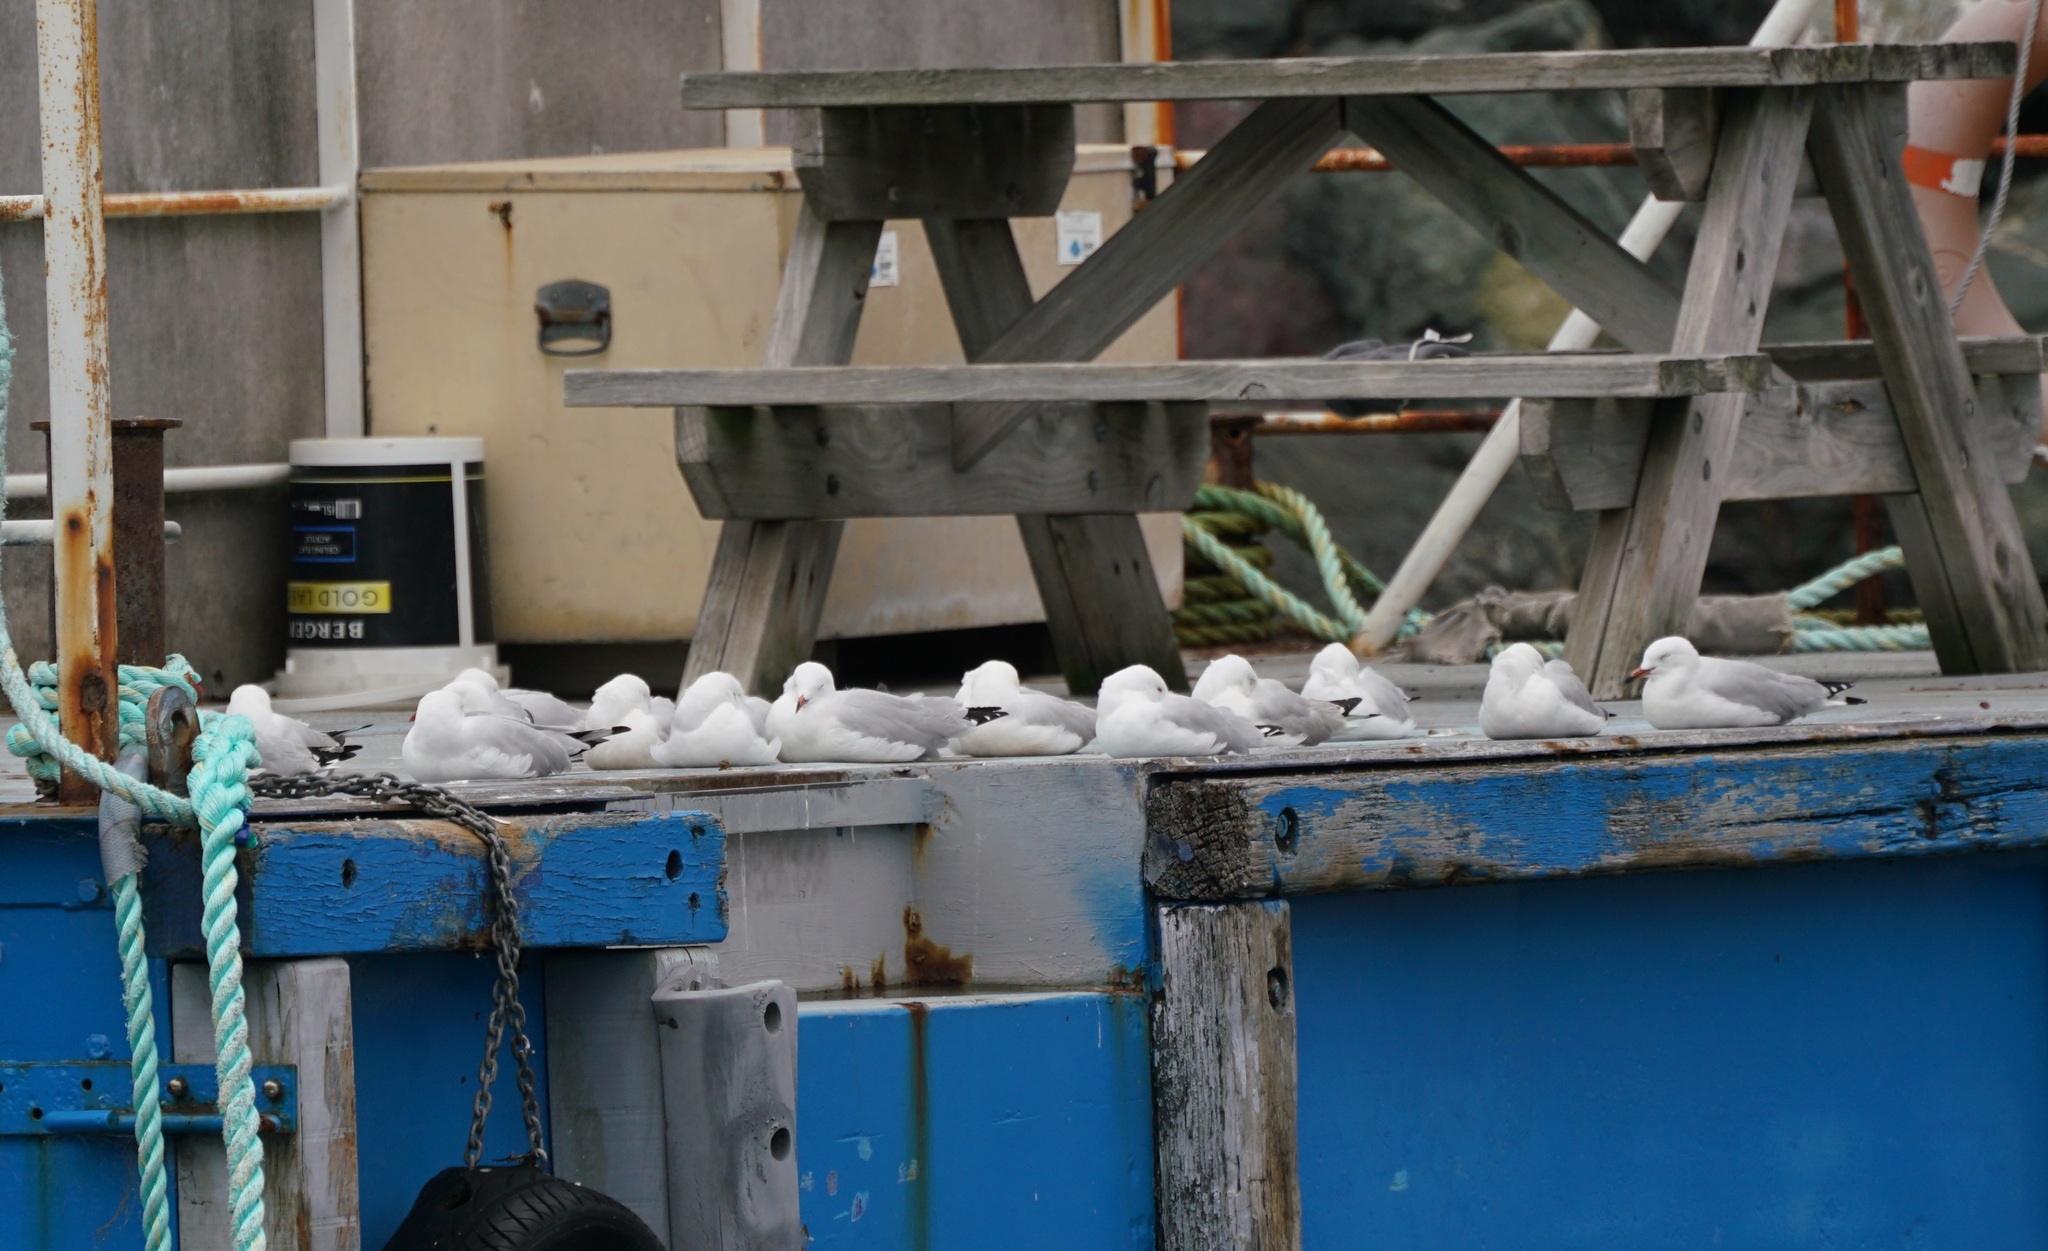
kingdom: Animalia
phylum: Chordata
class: Aves
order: Charadriiformes
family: Laridae
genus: Chroicocephalus
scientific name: Chroicocephalus novaehollandiae
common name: Silver gull
